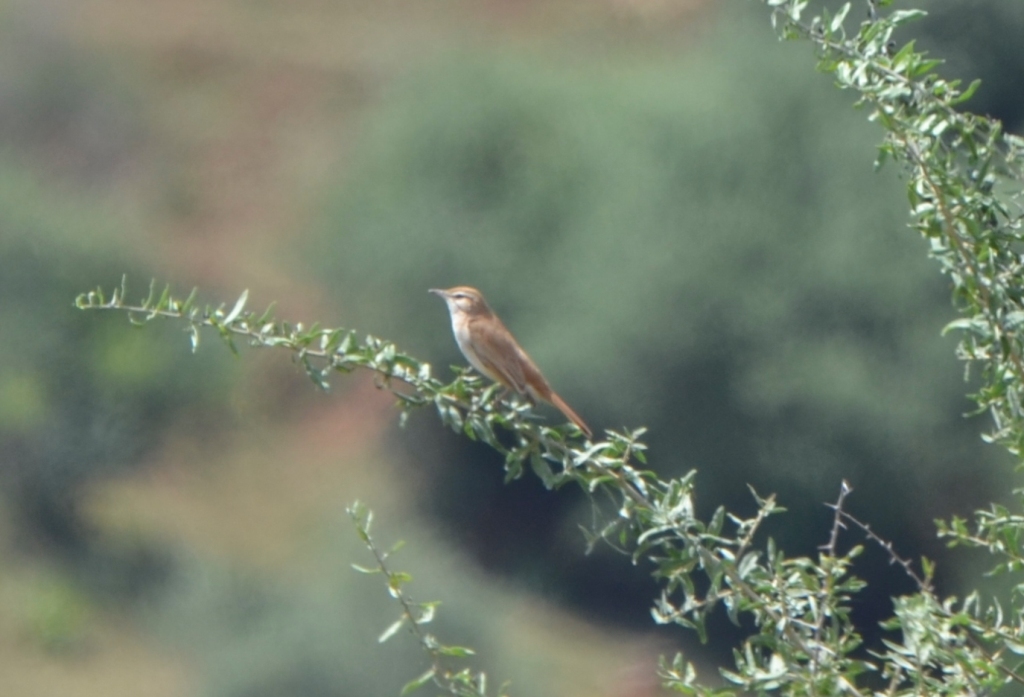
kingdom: Animalia
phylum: Chordata
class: Aves
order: Passeriformes
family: Muscicapidae
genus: Erythropygia
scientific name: Erythropygia galactotes
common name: Rufous-tailed scrub robin
